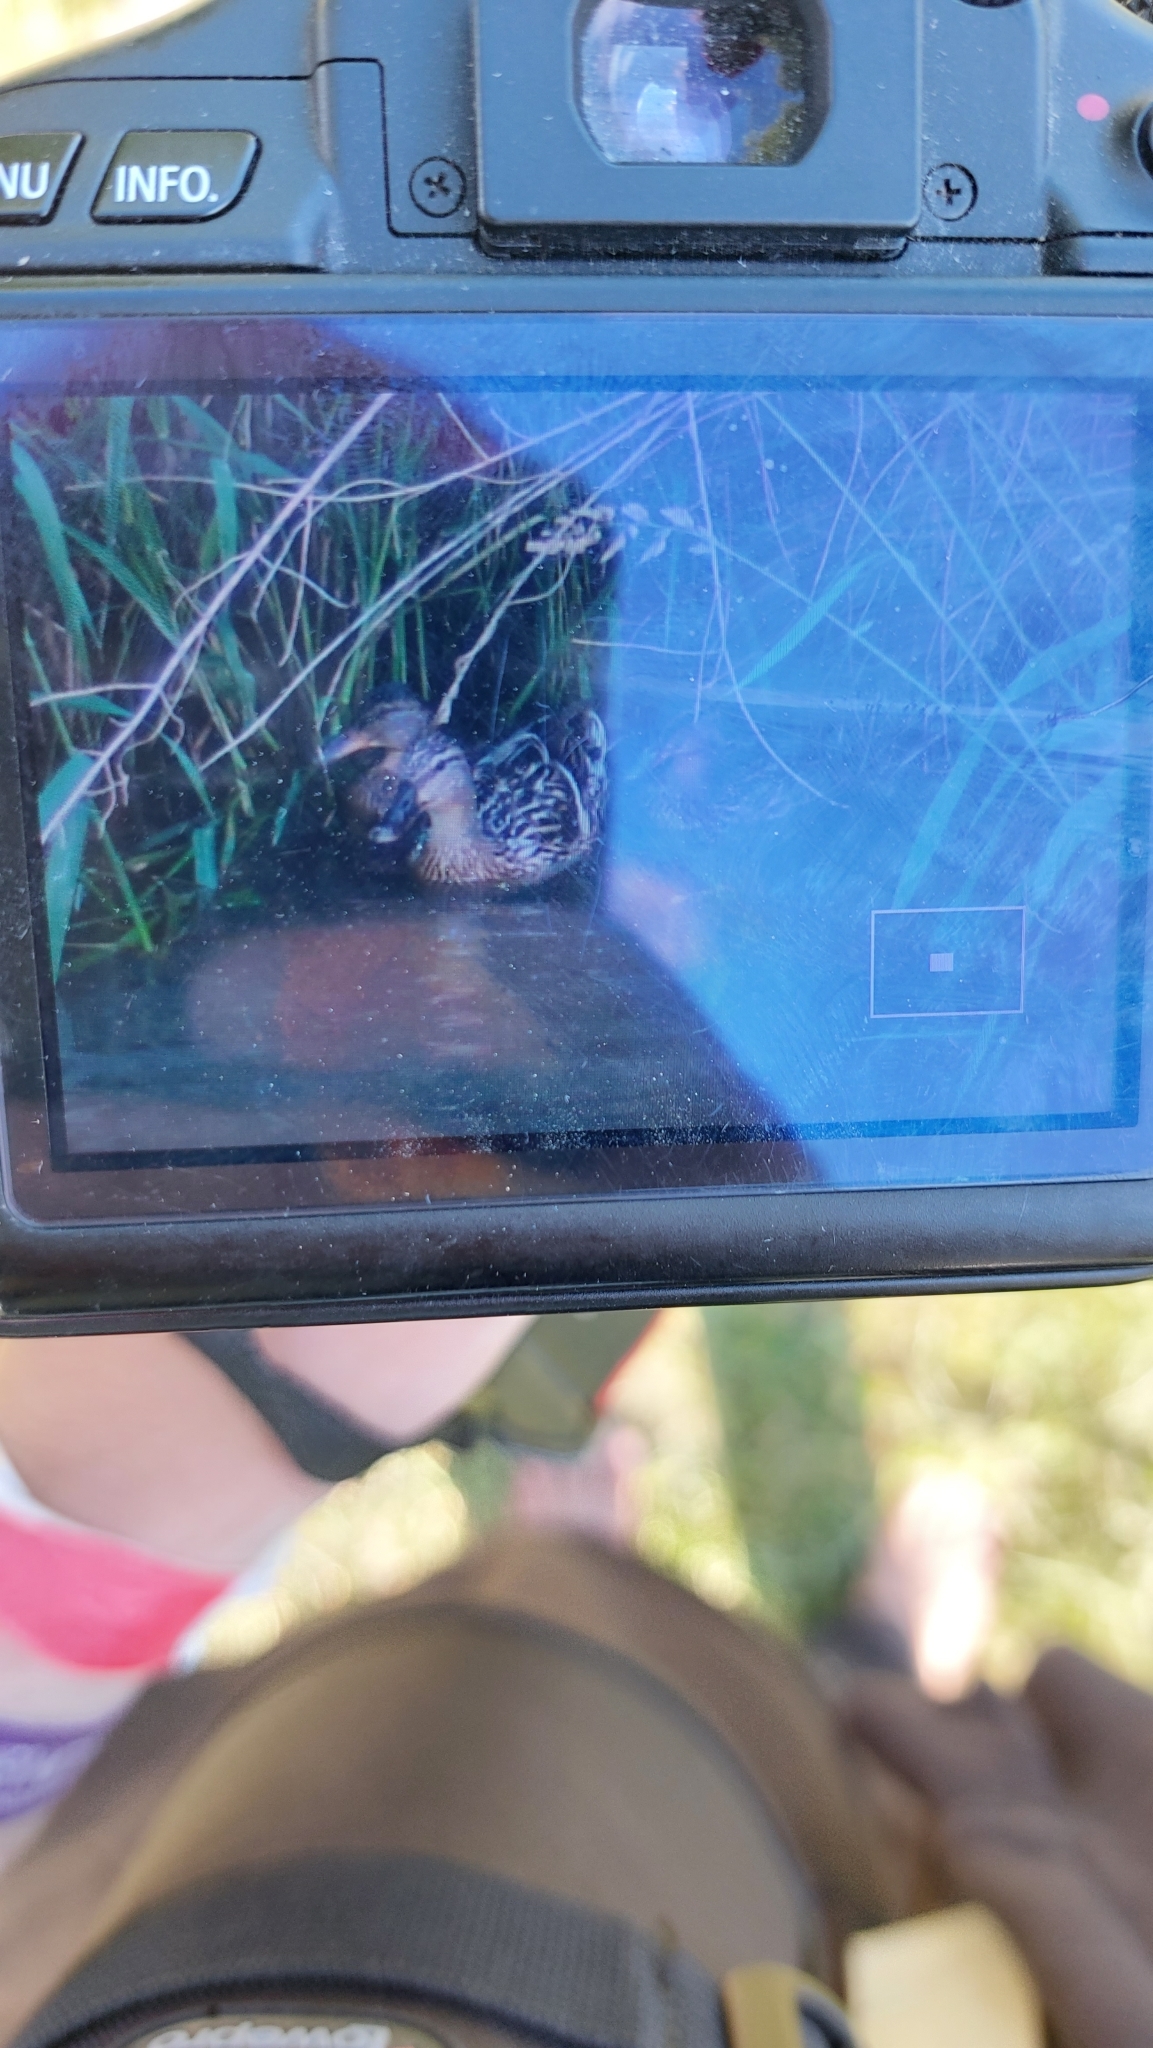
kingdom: Animalia
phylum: Chordata
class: Aves
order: Anseriformes
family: Anatidae
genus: Anas
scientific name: Anas platyrhynchos
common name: Mallard
